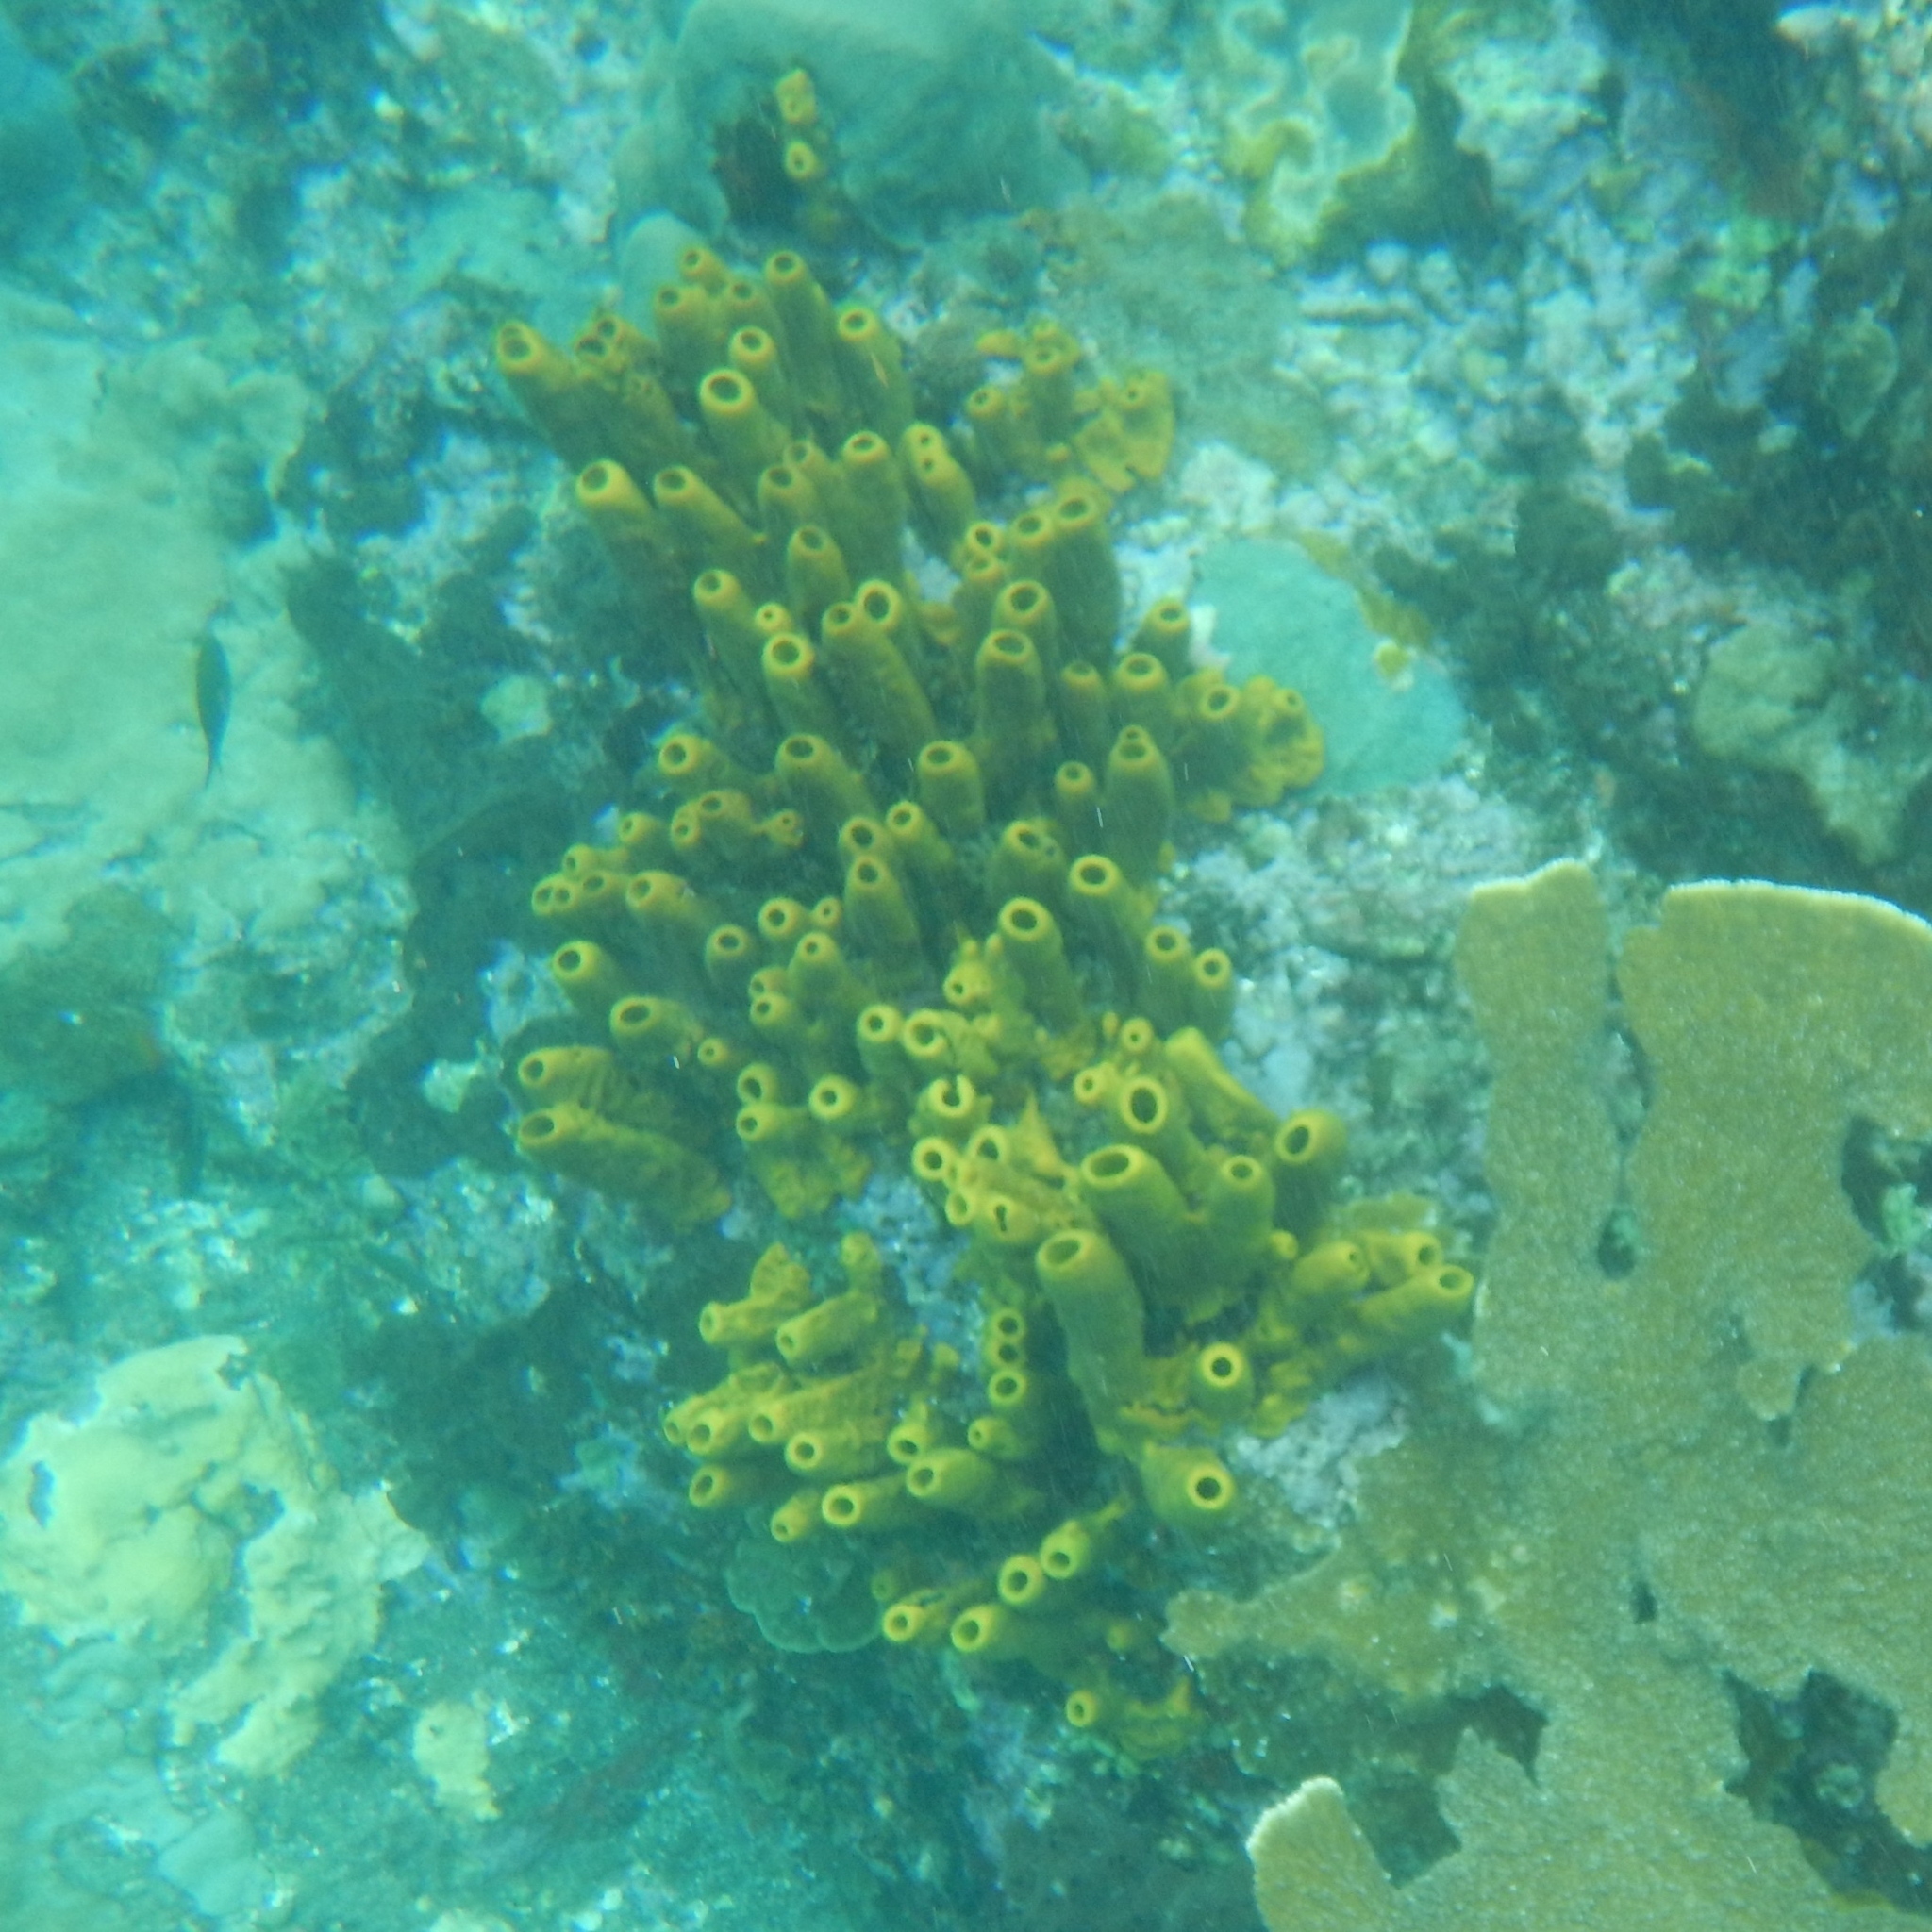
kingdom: Animalia
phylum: Porifera
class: Demospongiae
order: Verongiida
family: Aplysinidae
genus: Aplysina
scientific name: Aplysina fistularis
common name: Candle sponge
